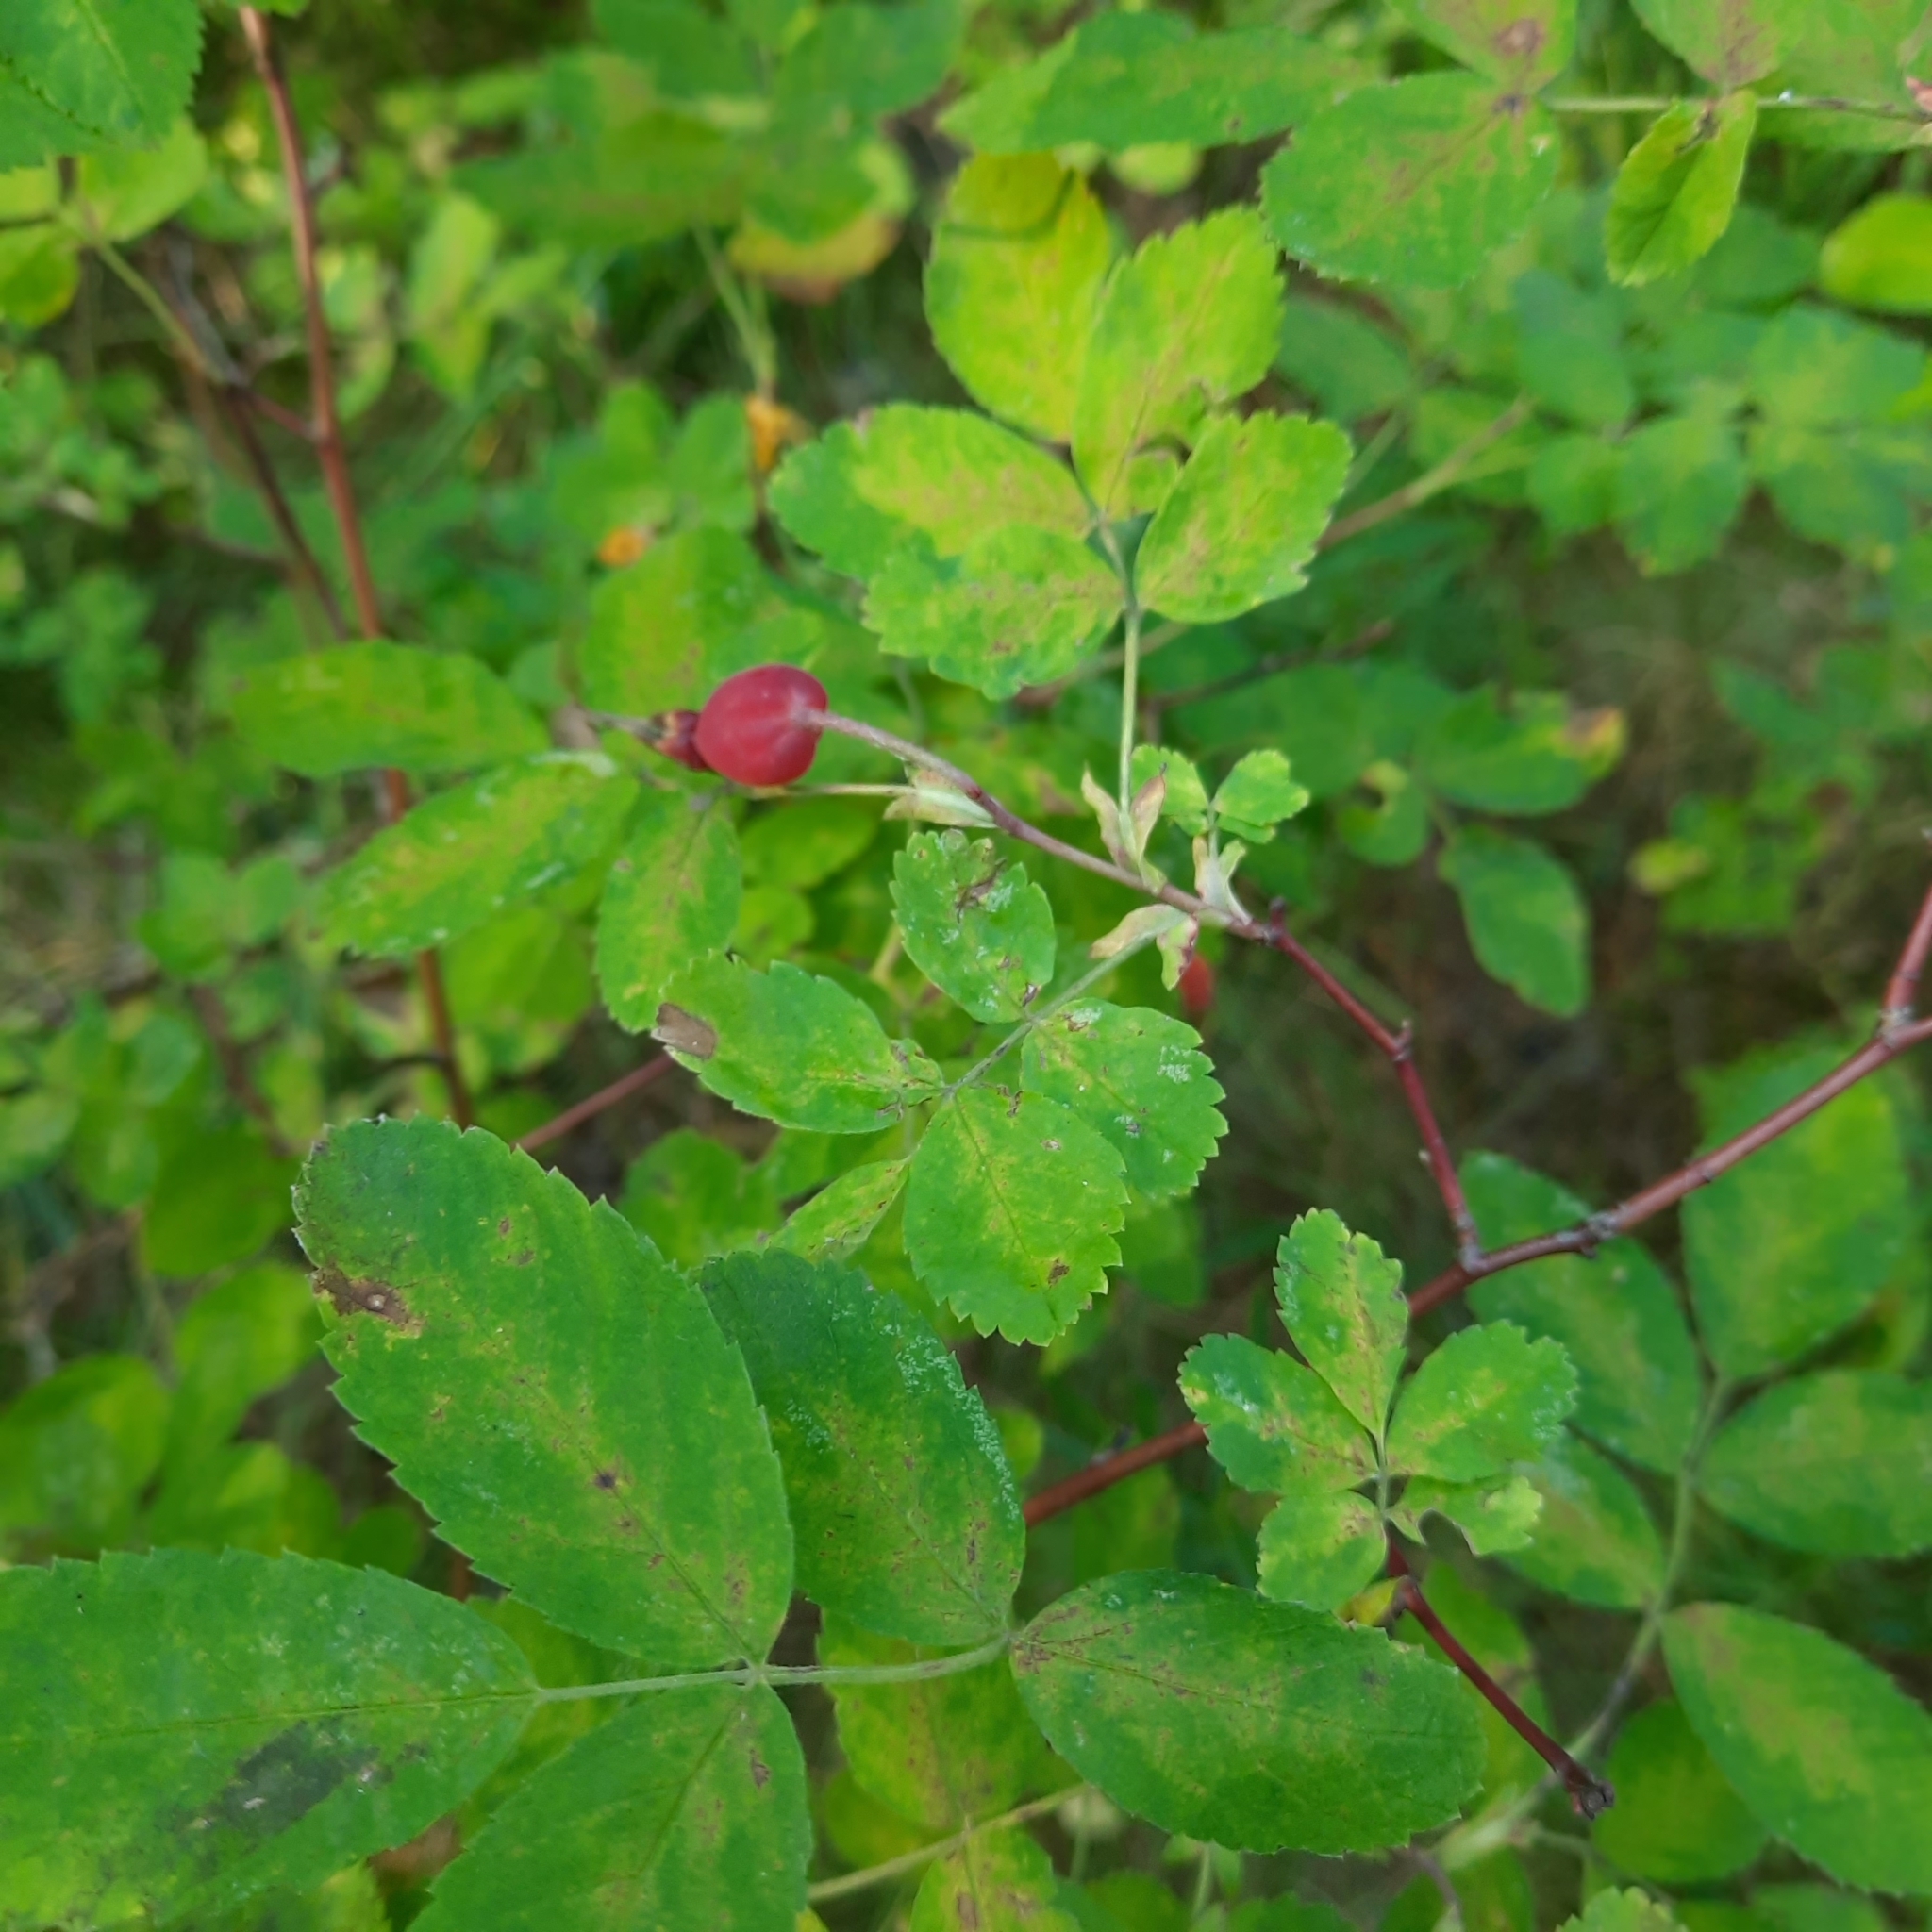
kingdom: Plantae
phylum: Tracheophyta
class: Magnoliopsida
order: Rosales
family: Rosaceae
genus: Rosa
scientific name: Rosa acicularis
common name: Prickly rose
